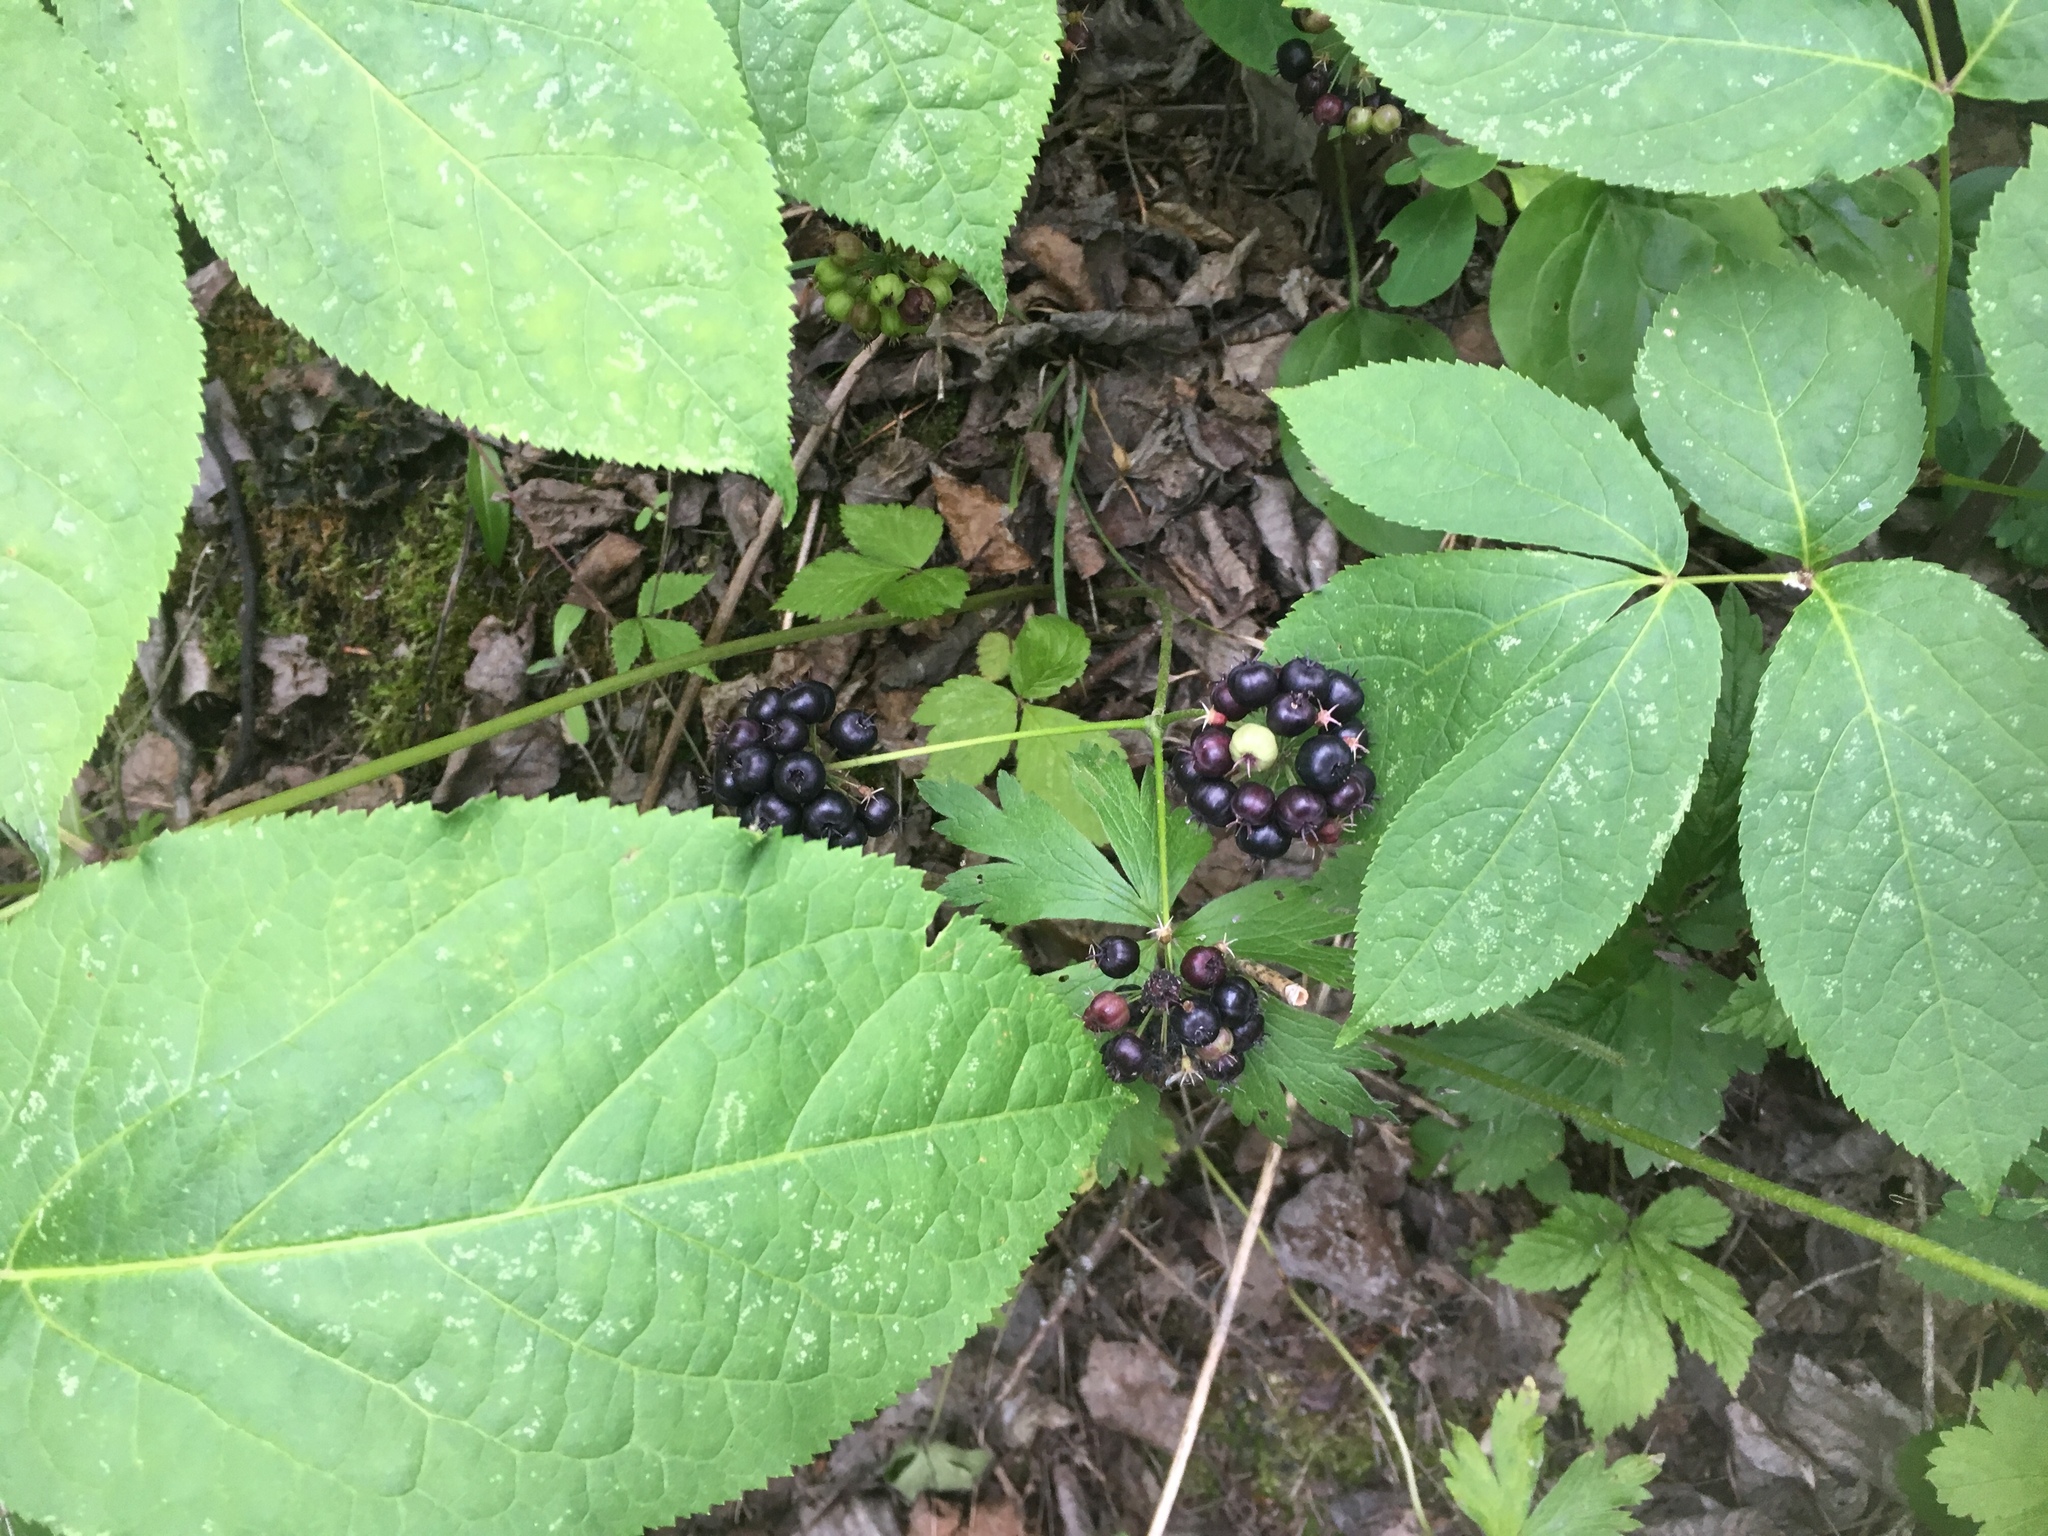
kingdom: Plantae
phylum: Tracheophyta
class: Magnoliopsida
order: Apiales
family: Araliaceae
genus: Aralia
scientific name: Aralia nudicaulis
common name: Wild sarsaparilla
